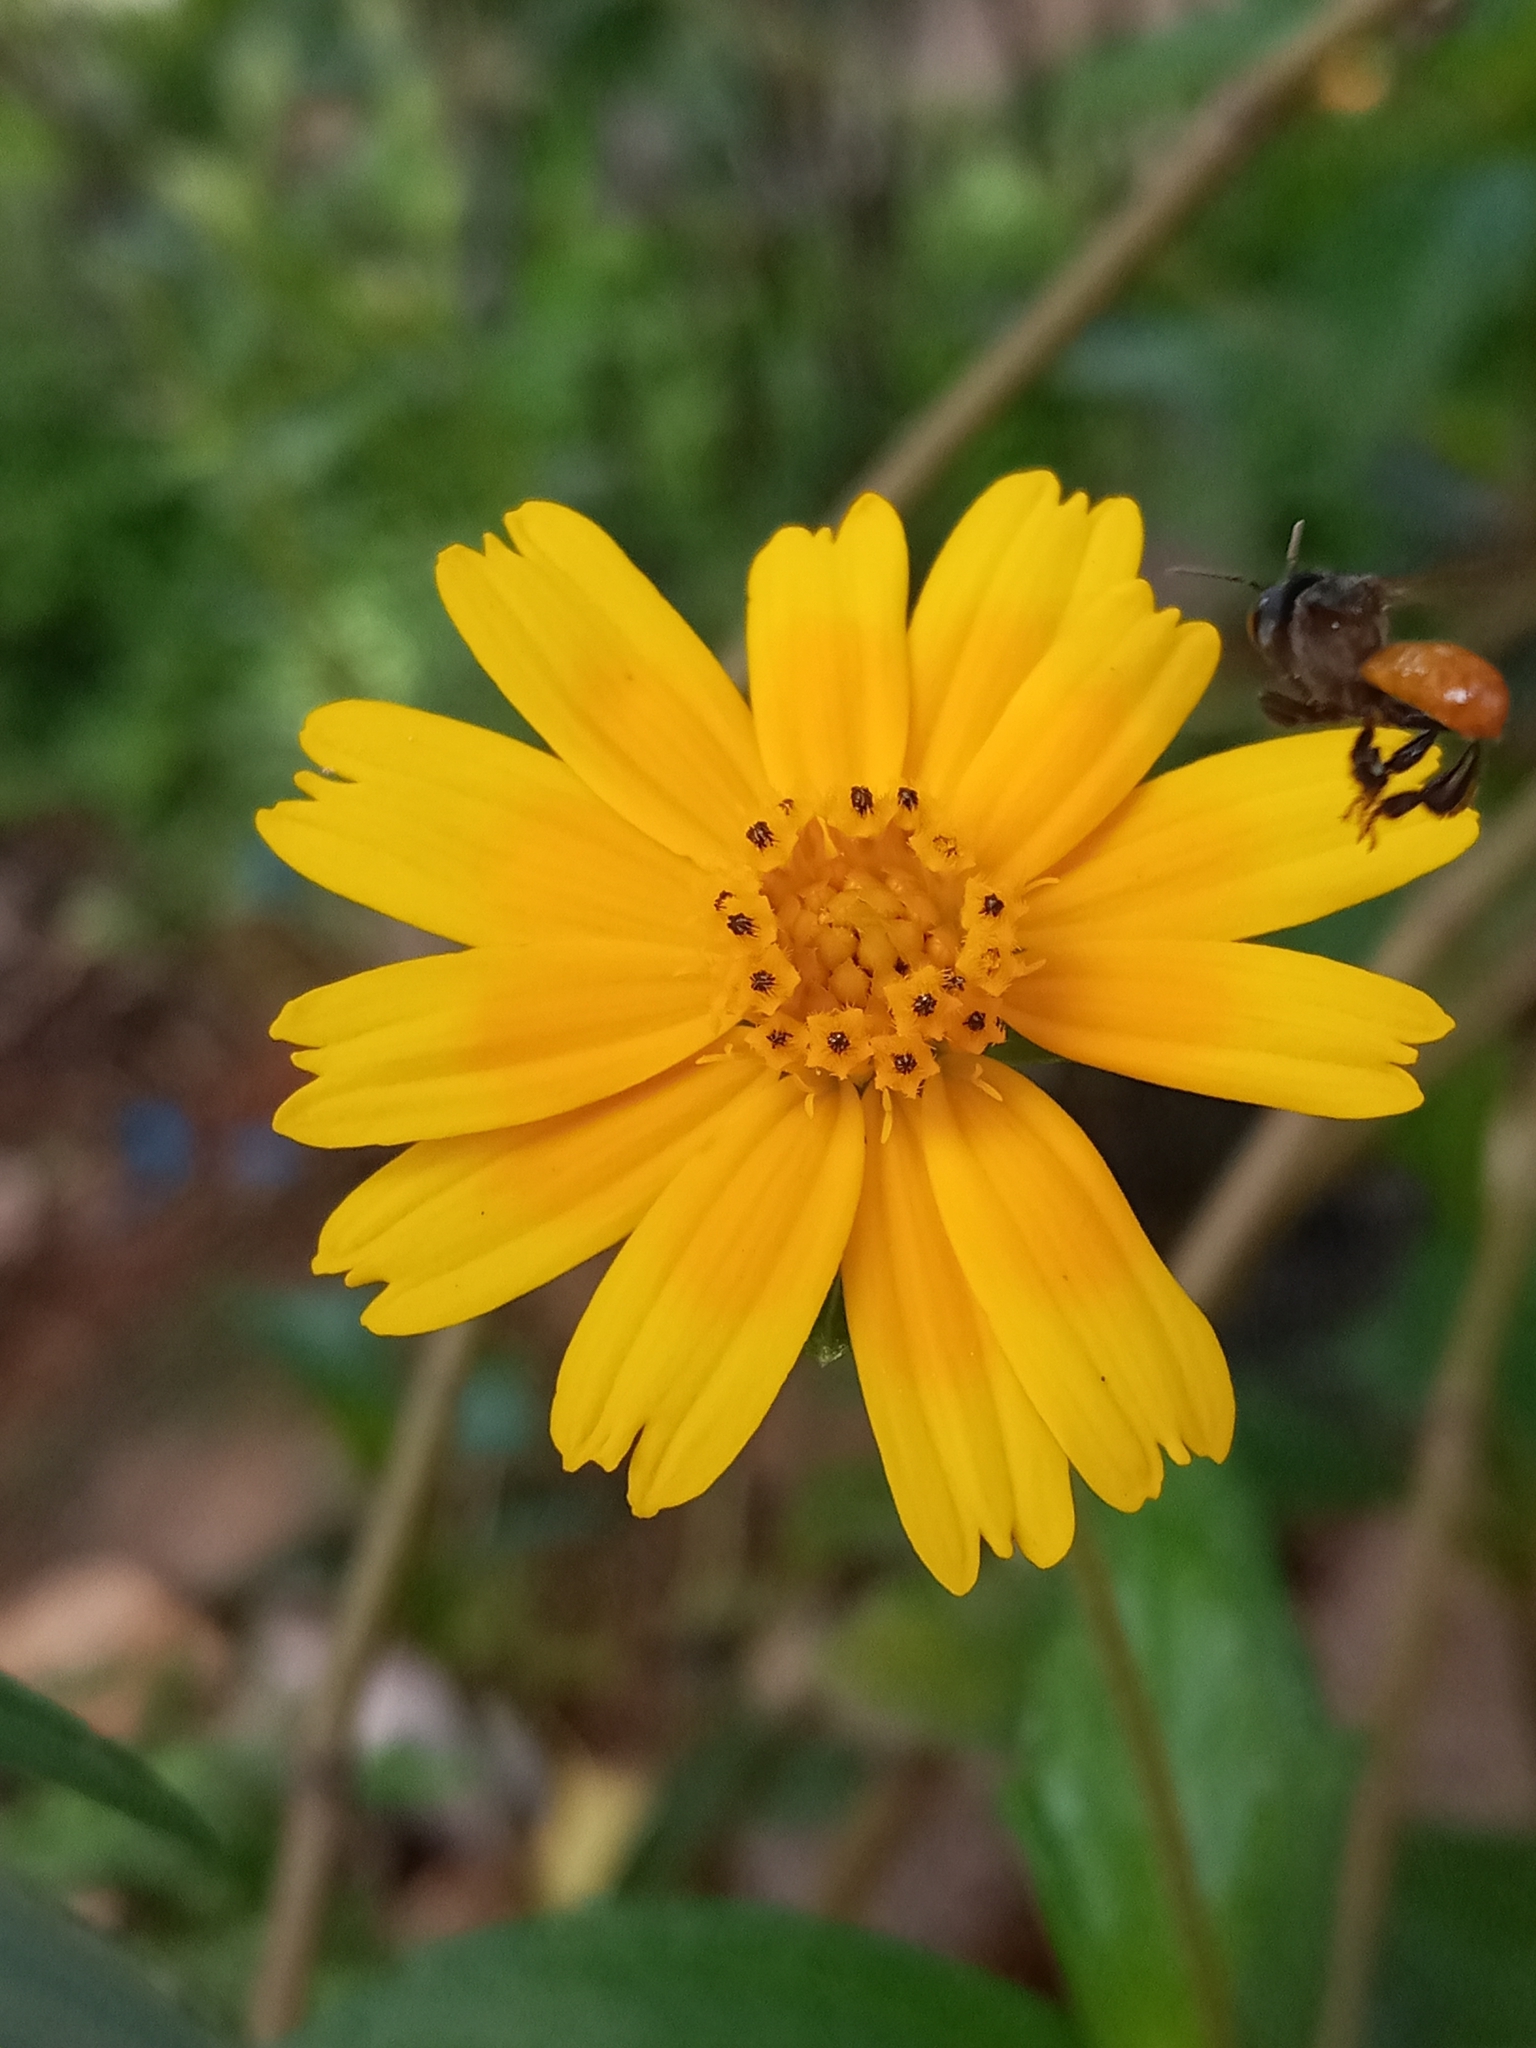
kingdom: Animalia
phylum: Arthropoda
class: Insecta
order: Hymenoptera
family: Apidae
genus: Trigona
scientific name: Trigona fulviventris
